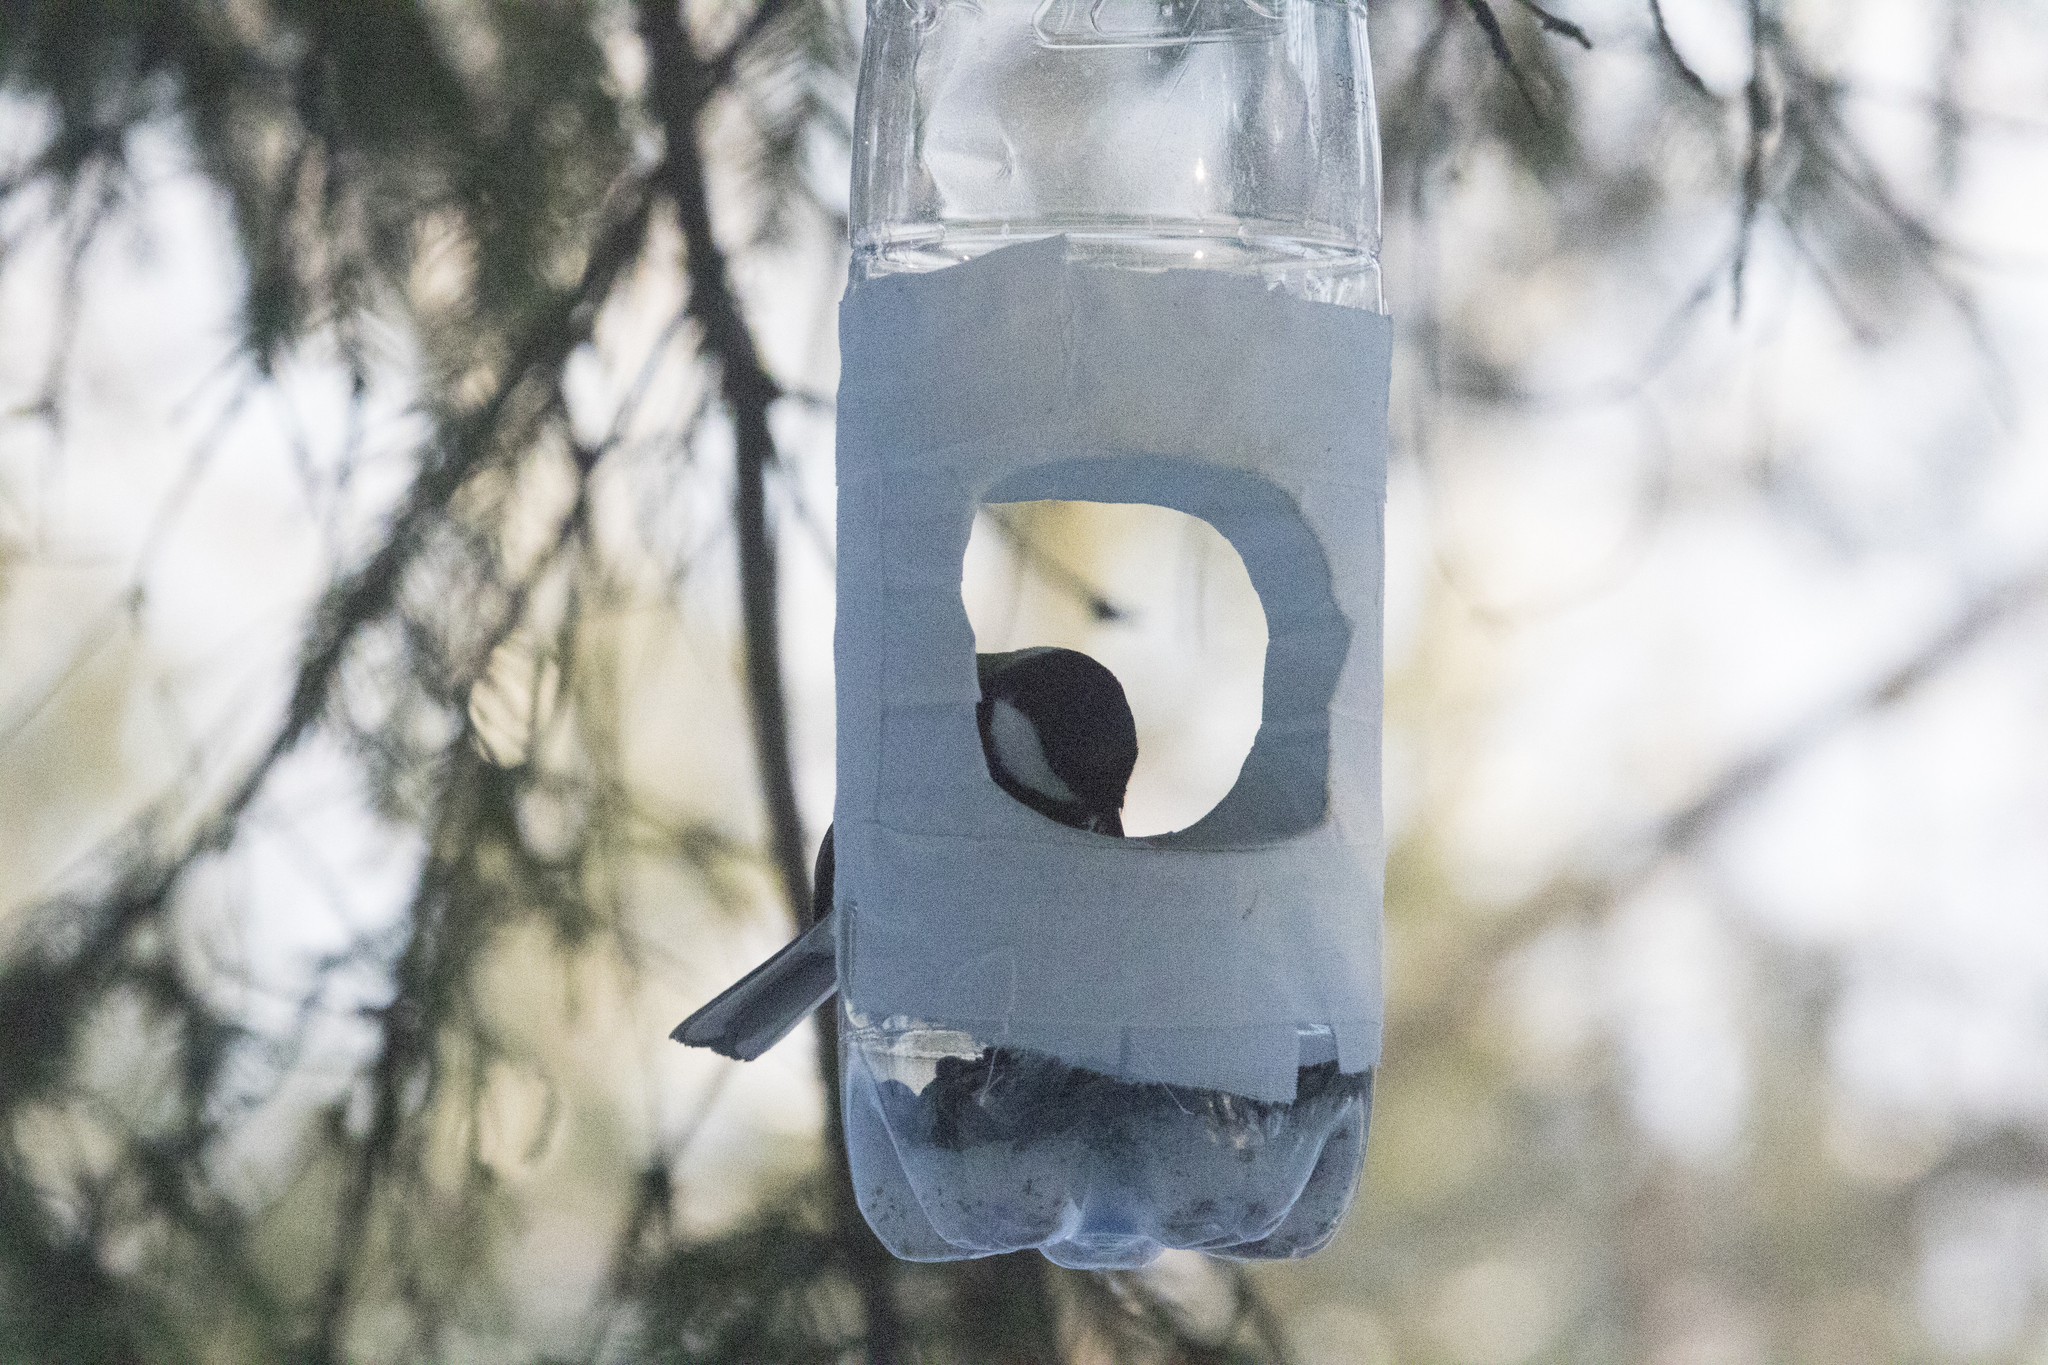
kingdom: Animalia
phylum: Chordata
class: Aves
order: Passeriformes
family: Paridae
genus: Parus
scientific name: Parus major
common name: Great tit
